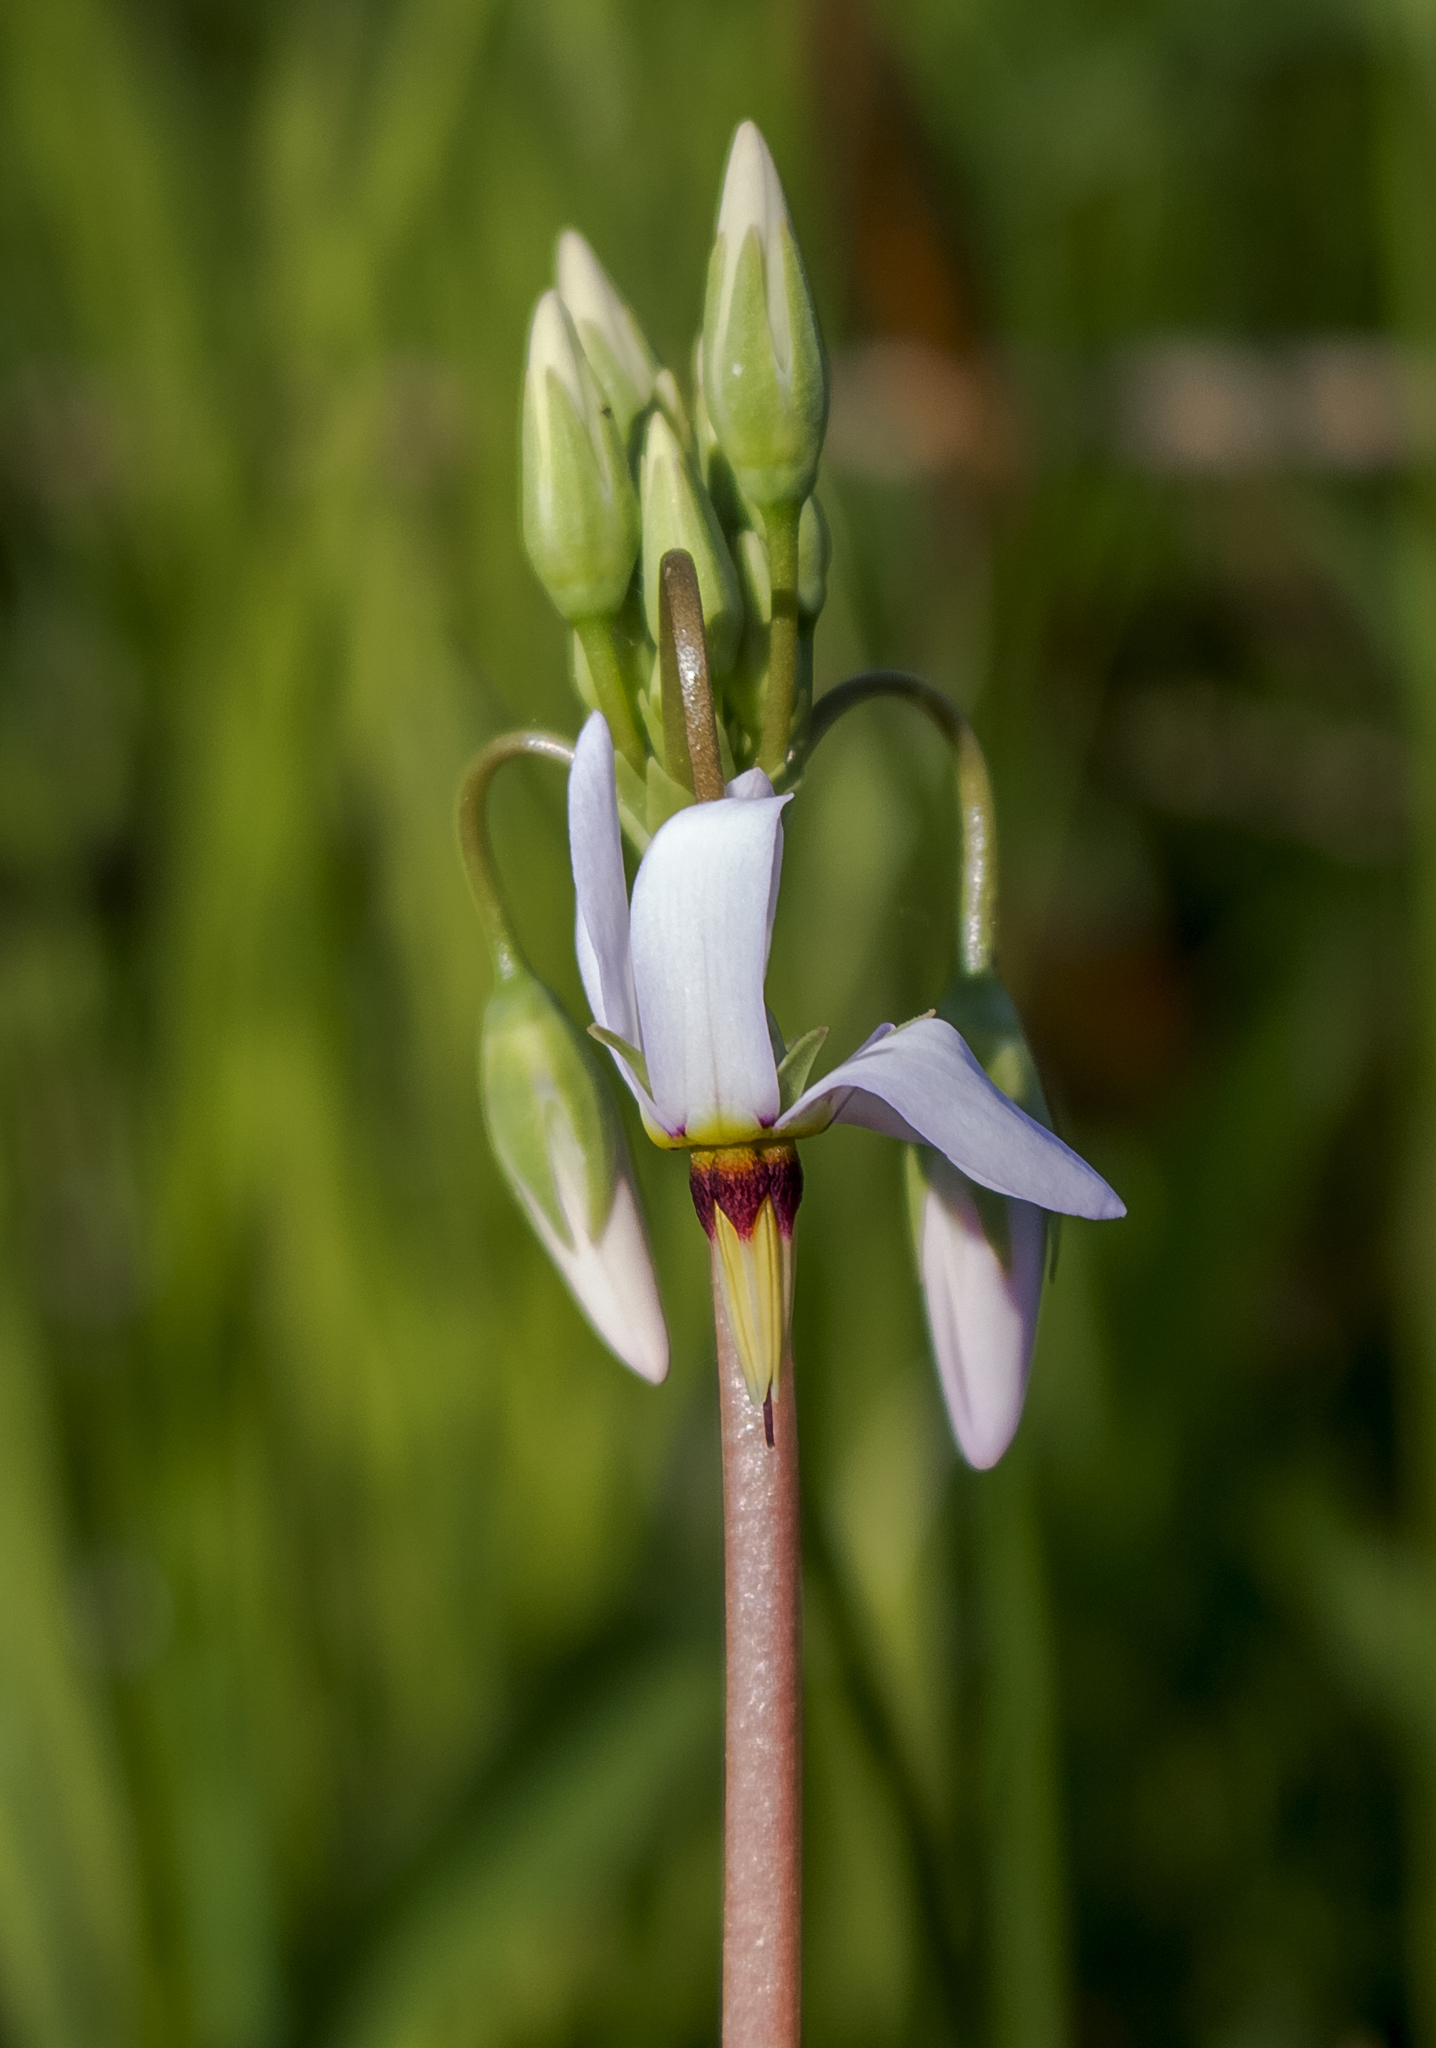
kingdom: Plantae
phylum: Tracheophyta
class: Magnoliopsida
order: Ericales
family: Primulaceae
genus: Dodecatheon
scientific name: Dodecatheon meadia
